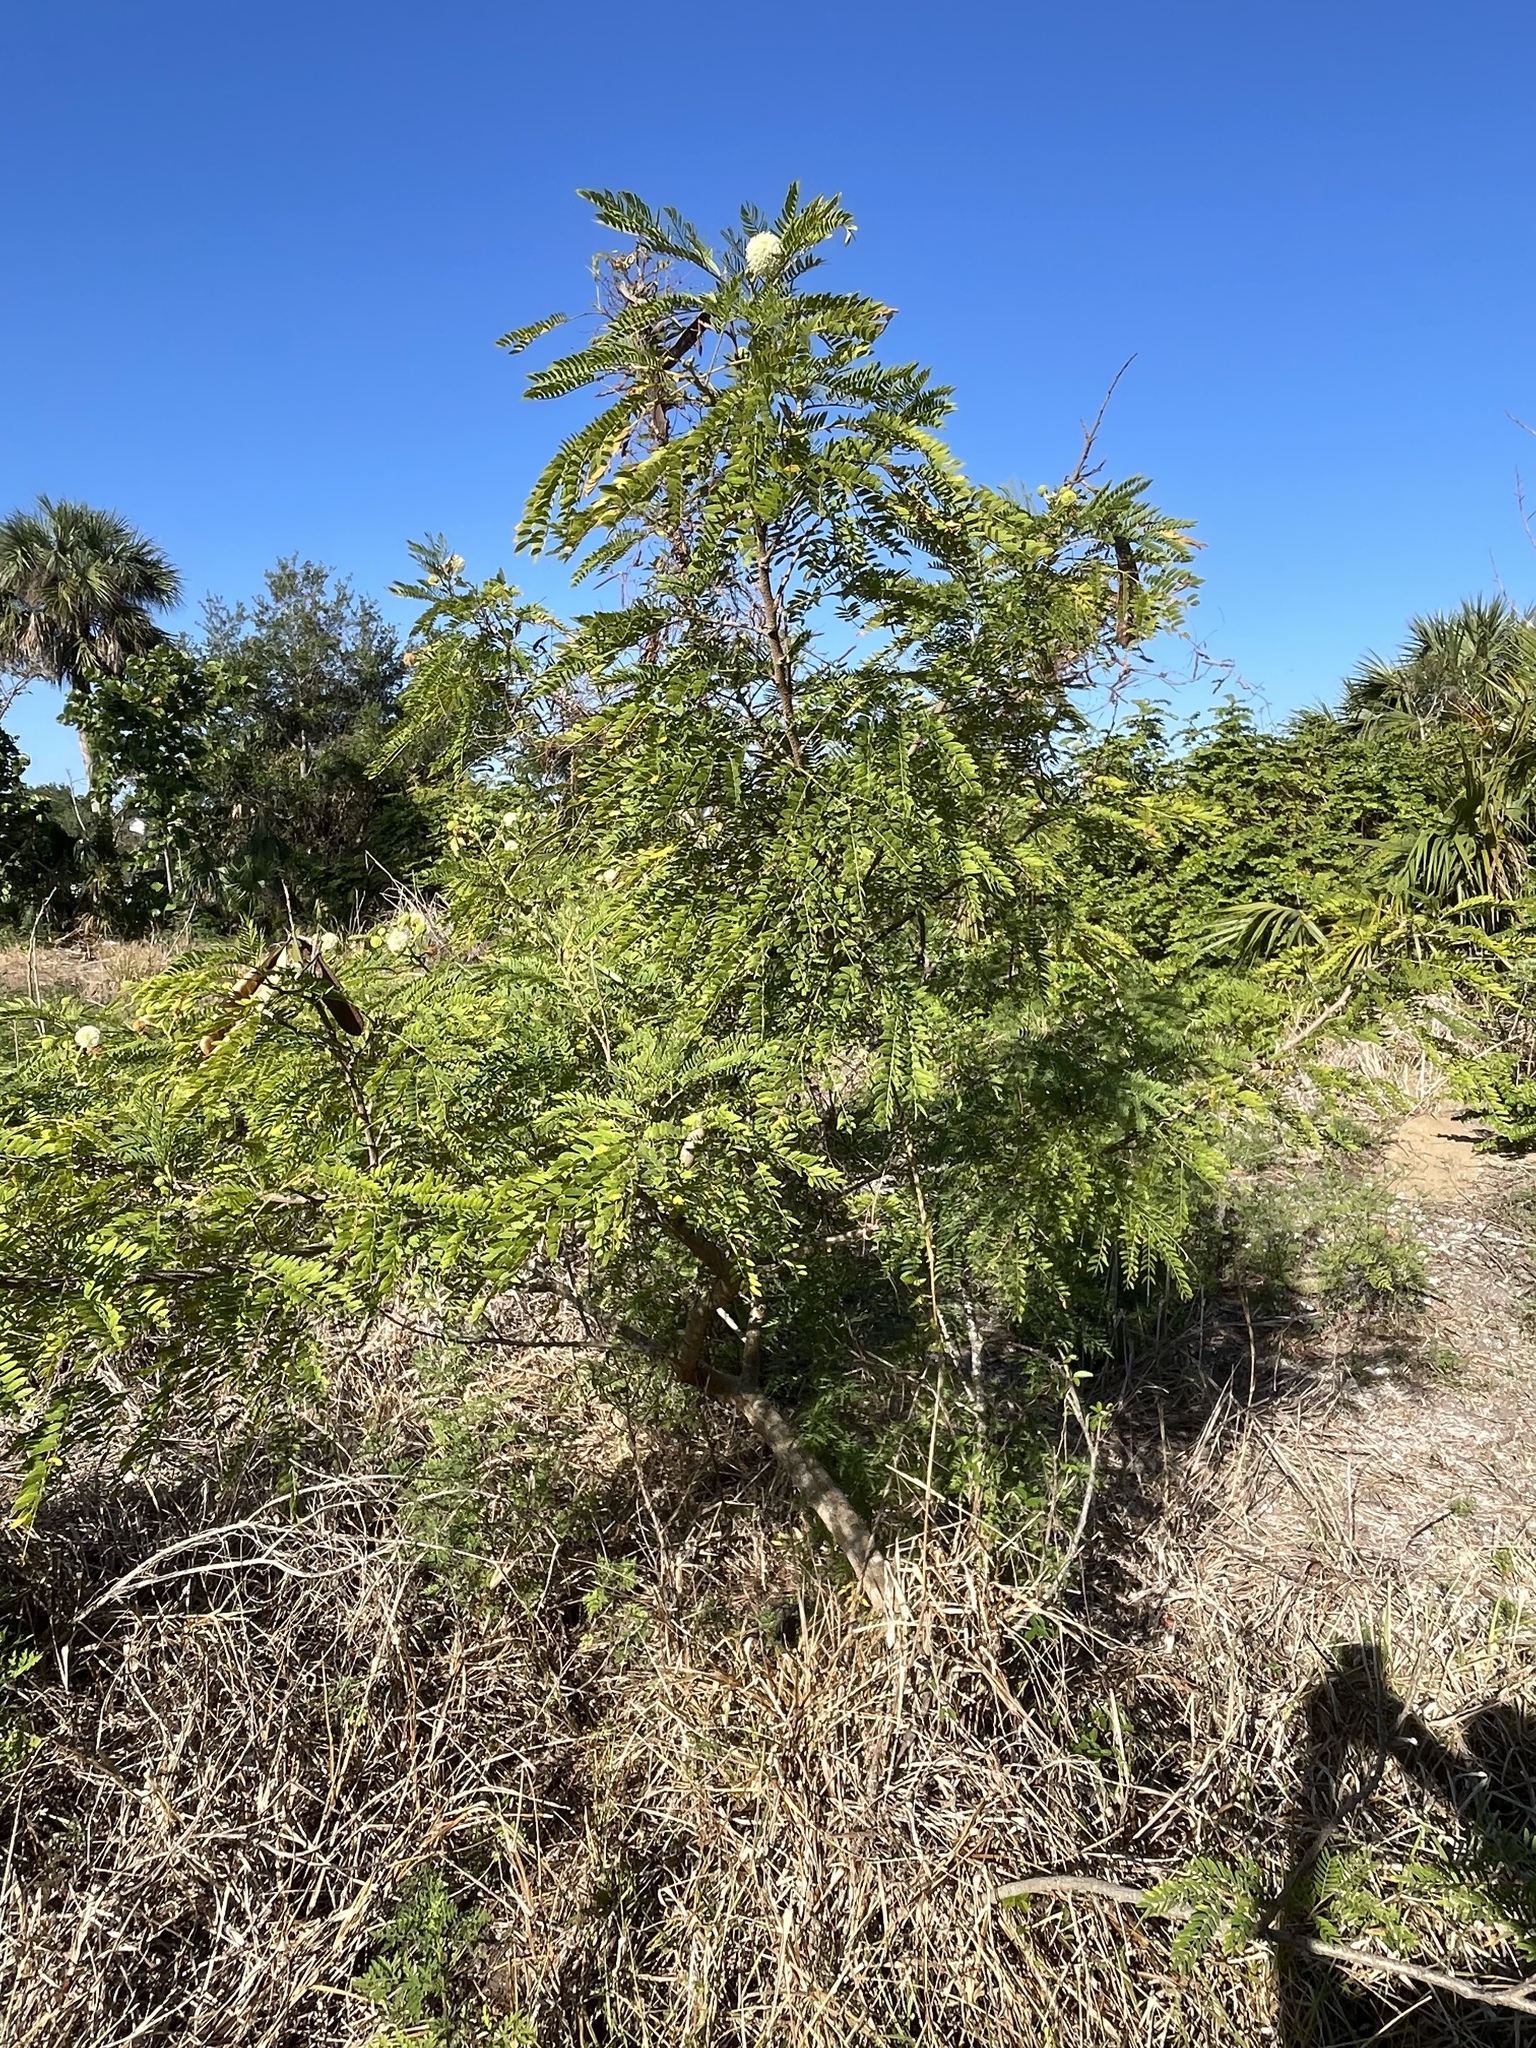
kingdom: Plantae
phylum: Tracheophyta
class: Magnoliopsida
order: Fabales
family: Fabaceae
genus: Leucaena
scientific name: Leucaena leucocephala
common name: White leadtree
